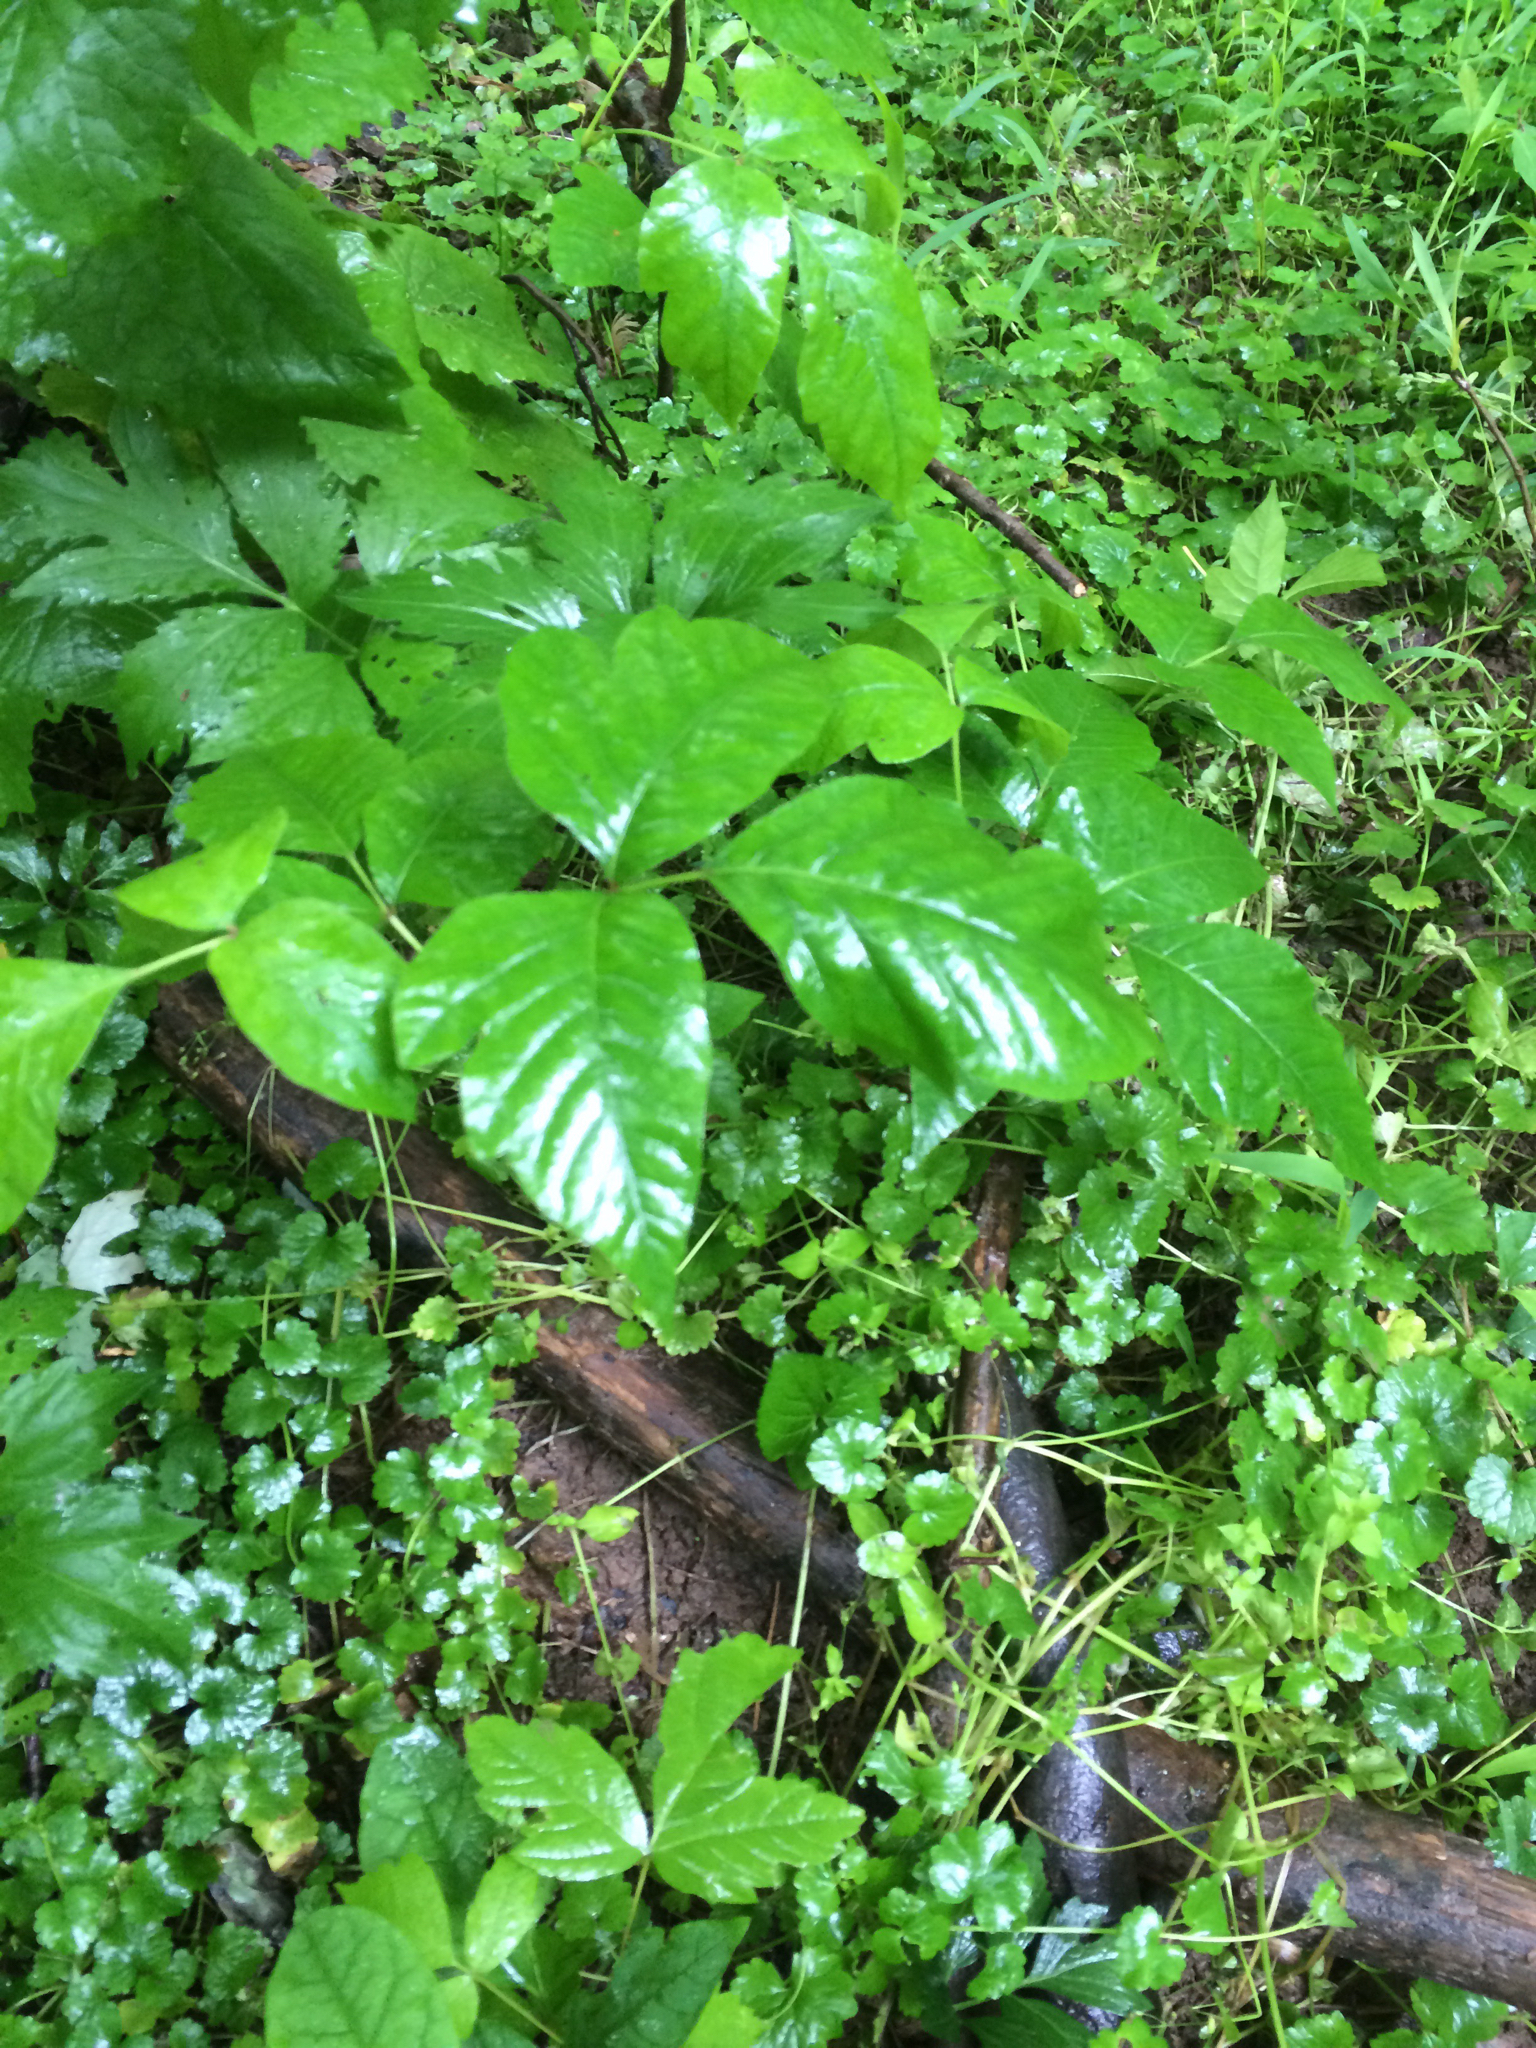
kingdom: Plantae
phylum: Tracheophyta
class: Magnoliopsida
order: Sapindales
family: Anacardiaceae
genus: Toxicodendron
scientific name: Toxicodendron radicans
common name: Poison ivy
